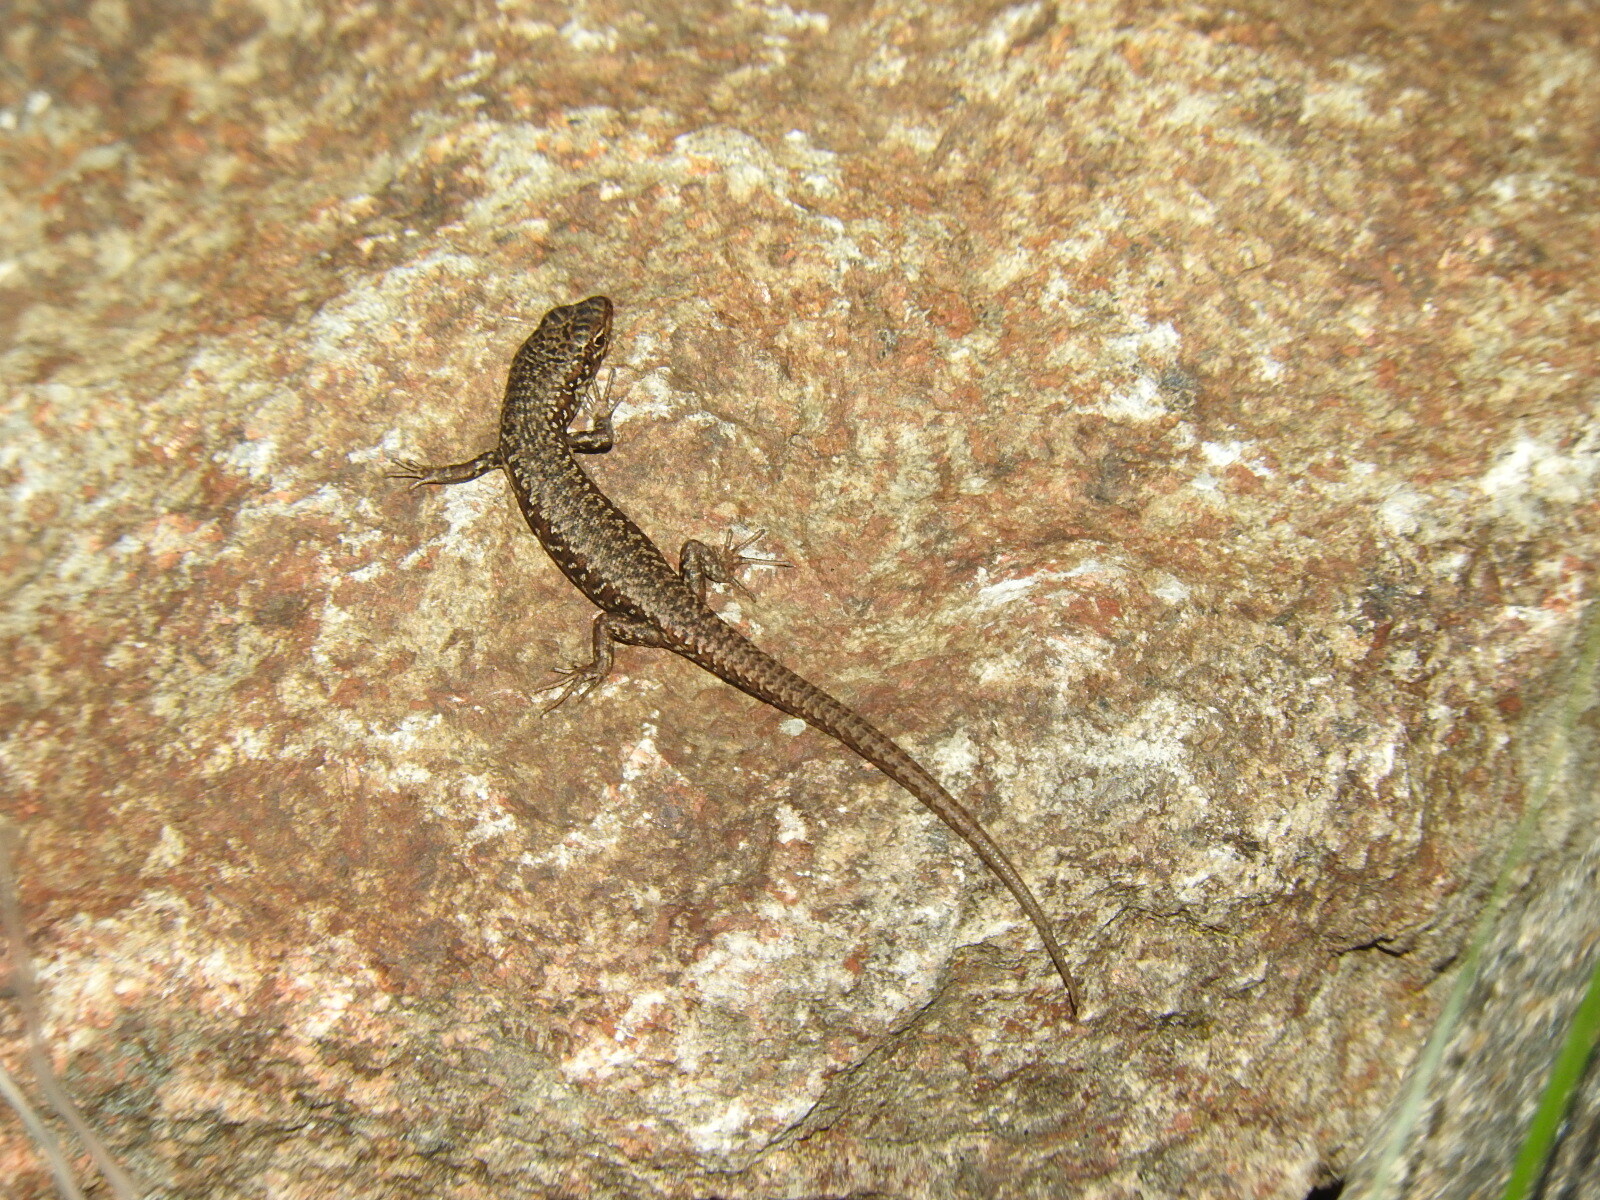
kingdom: Animalia
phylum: Chordata
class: Squamata
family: Scincidae
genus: Carinascincus
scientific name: Carinascincus ocellatus
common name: Ocellated cool-skink
